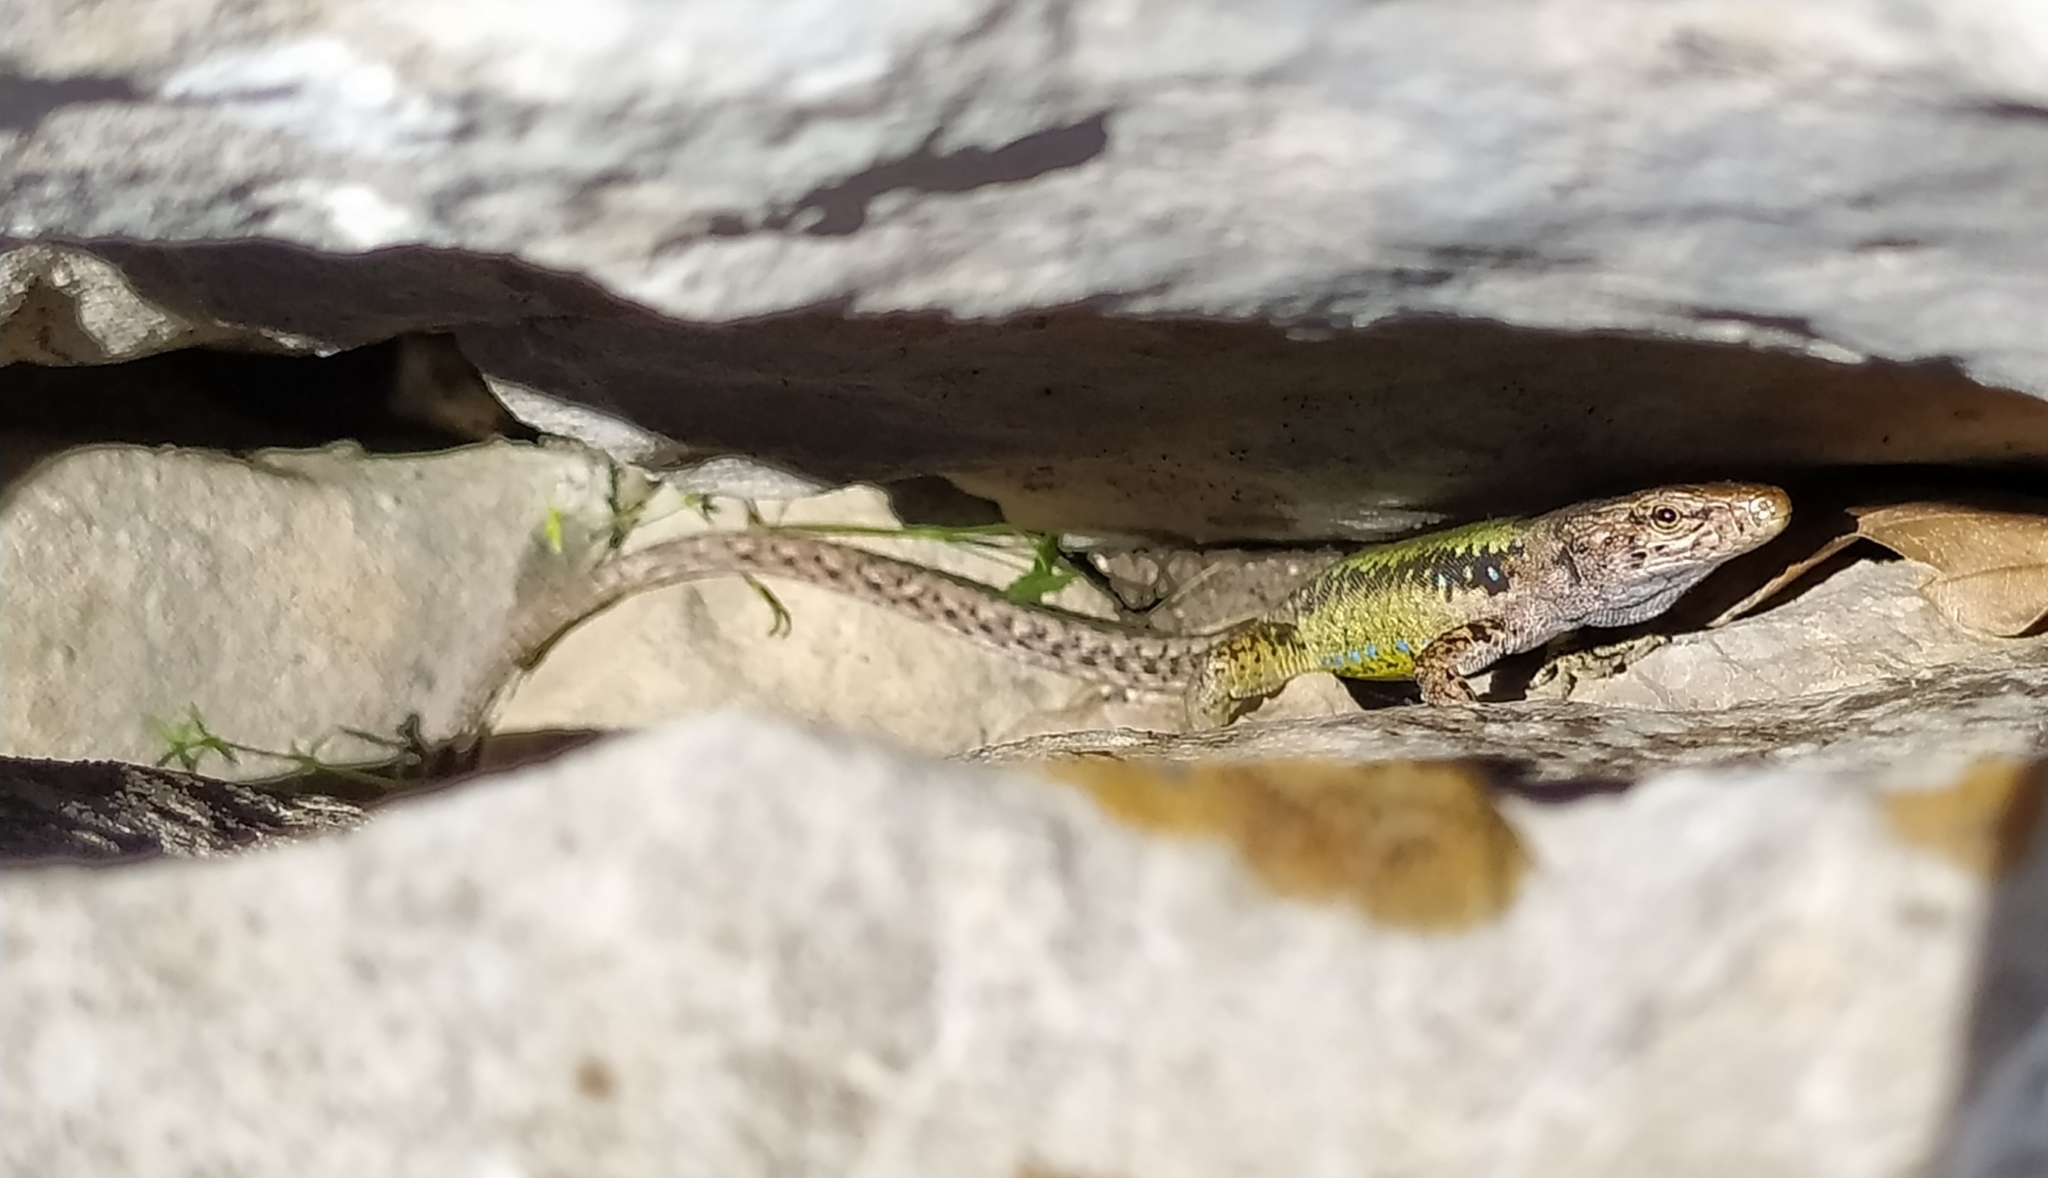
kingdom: Animalia
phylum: Chordata
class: Squamata
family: Lacertidae
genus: Darevskia
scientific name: Darevskia lindholmi
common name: Crimean rock lizard
